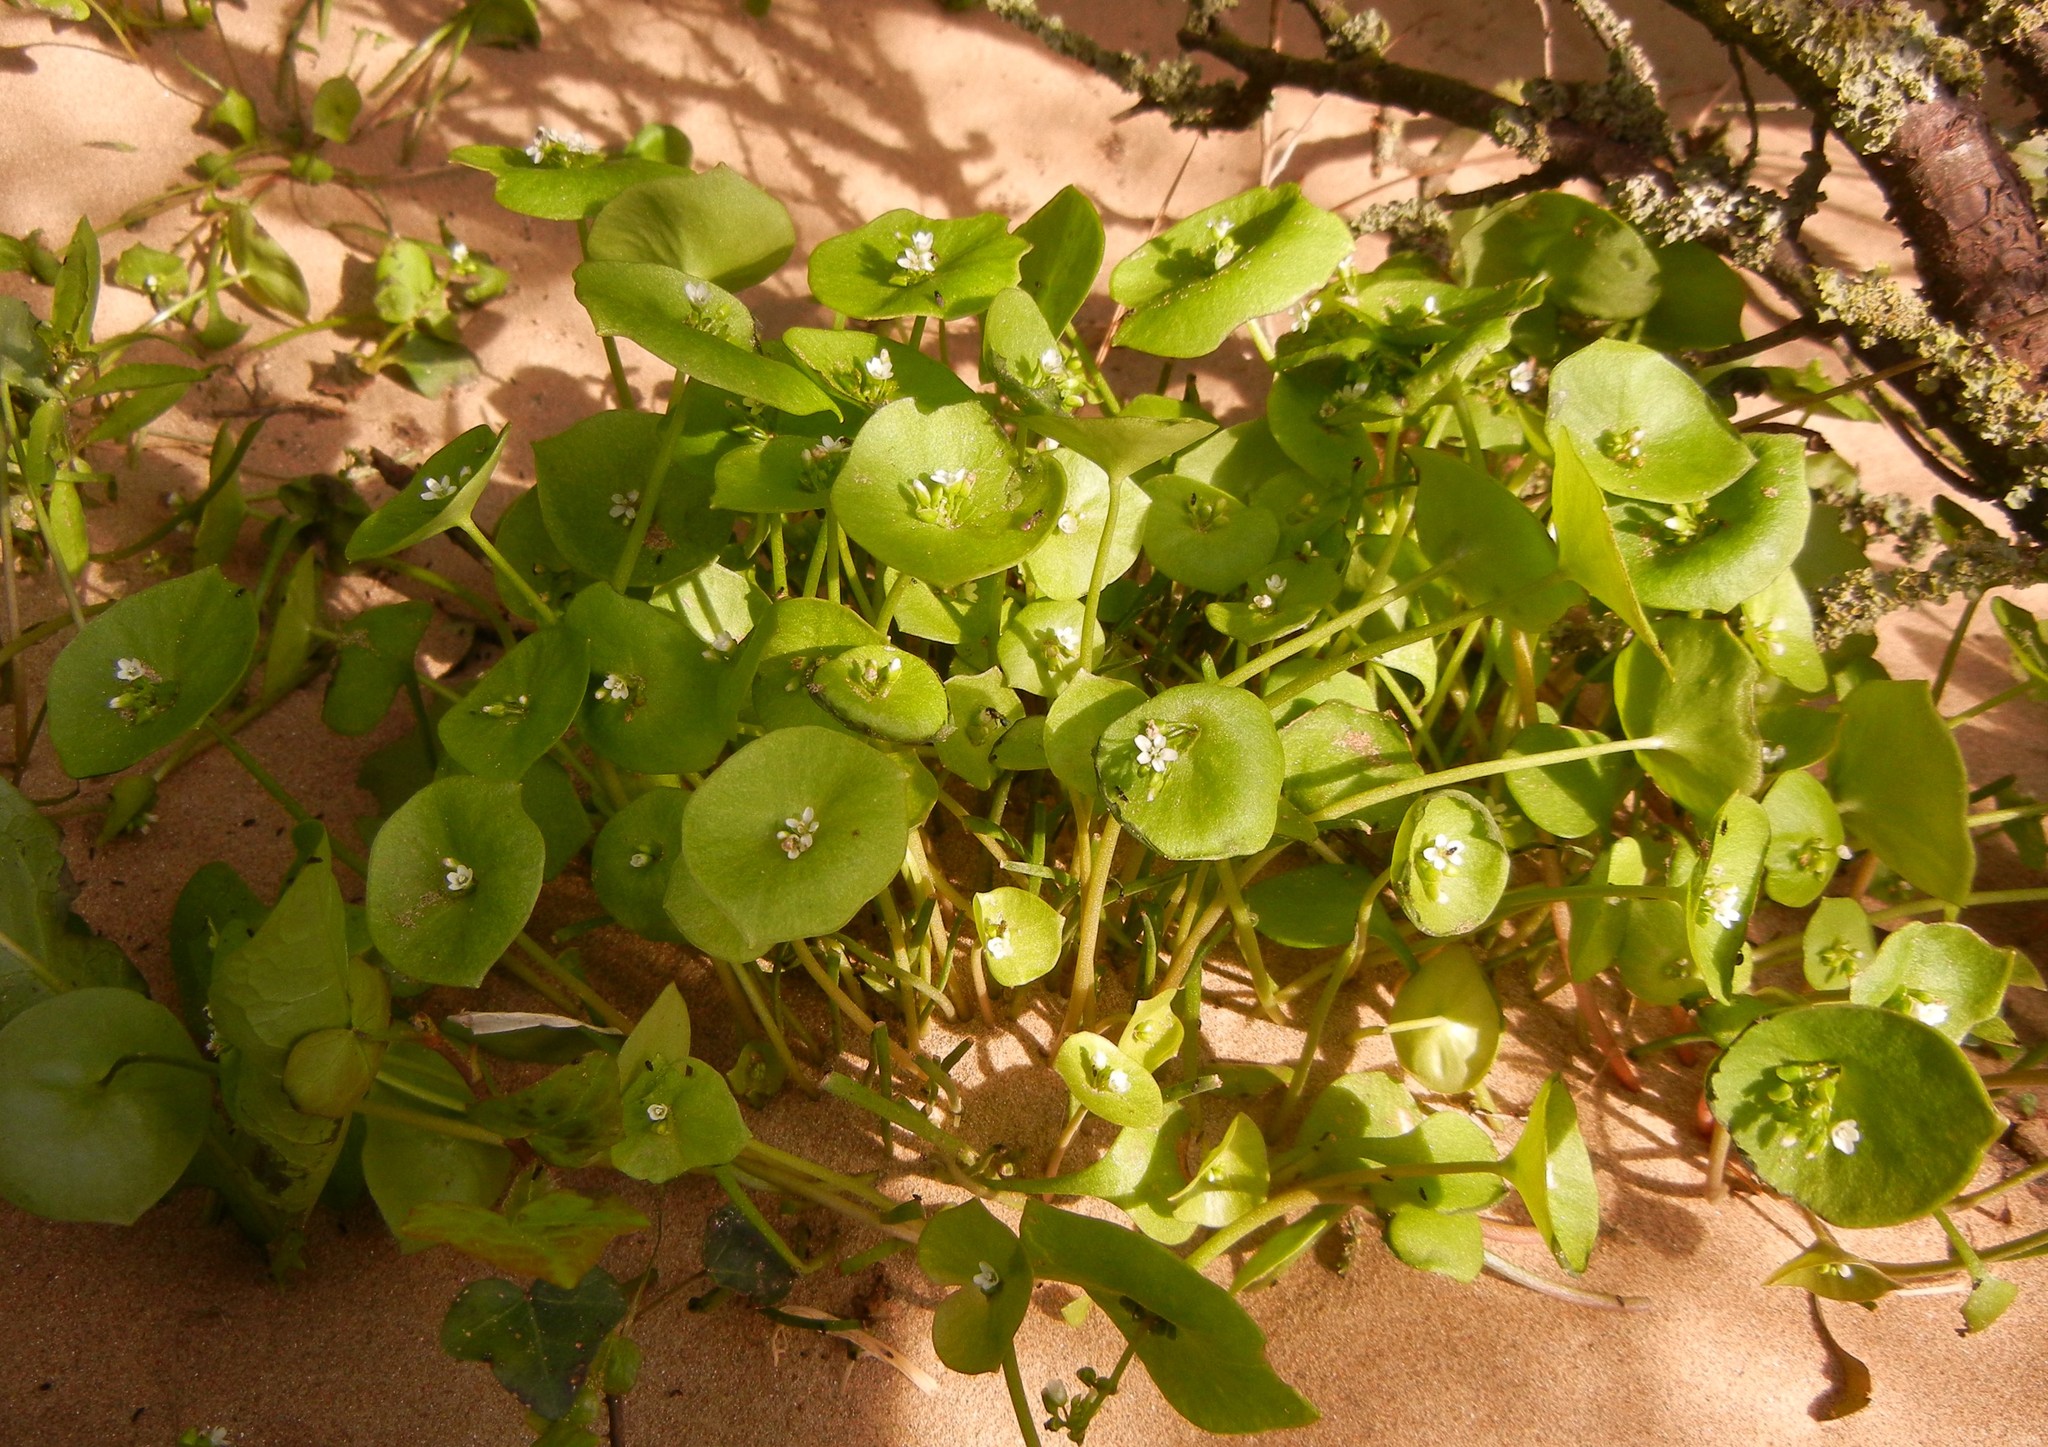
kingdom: Plantae
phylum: Tracheophyta
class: Magnoliopsida
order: Caryophyllales
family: Montiaceae
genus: Claytonia
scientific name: Claytonia perfoliata
